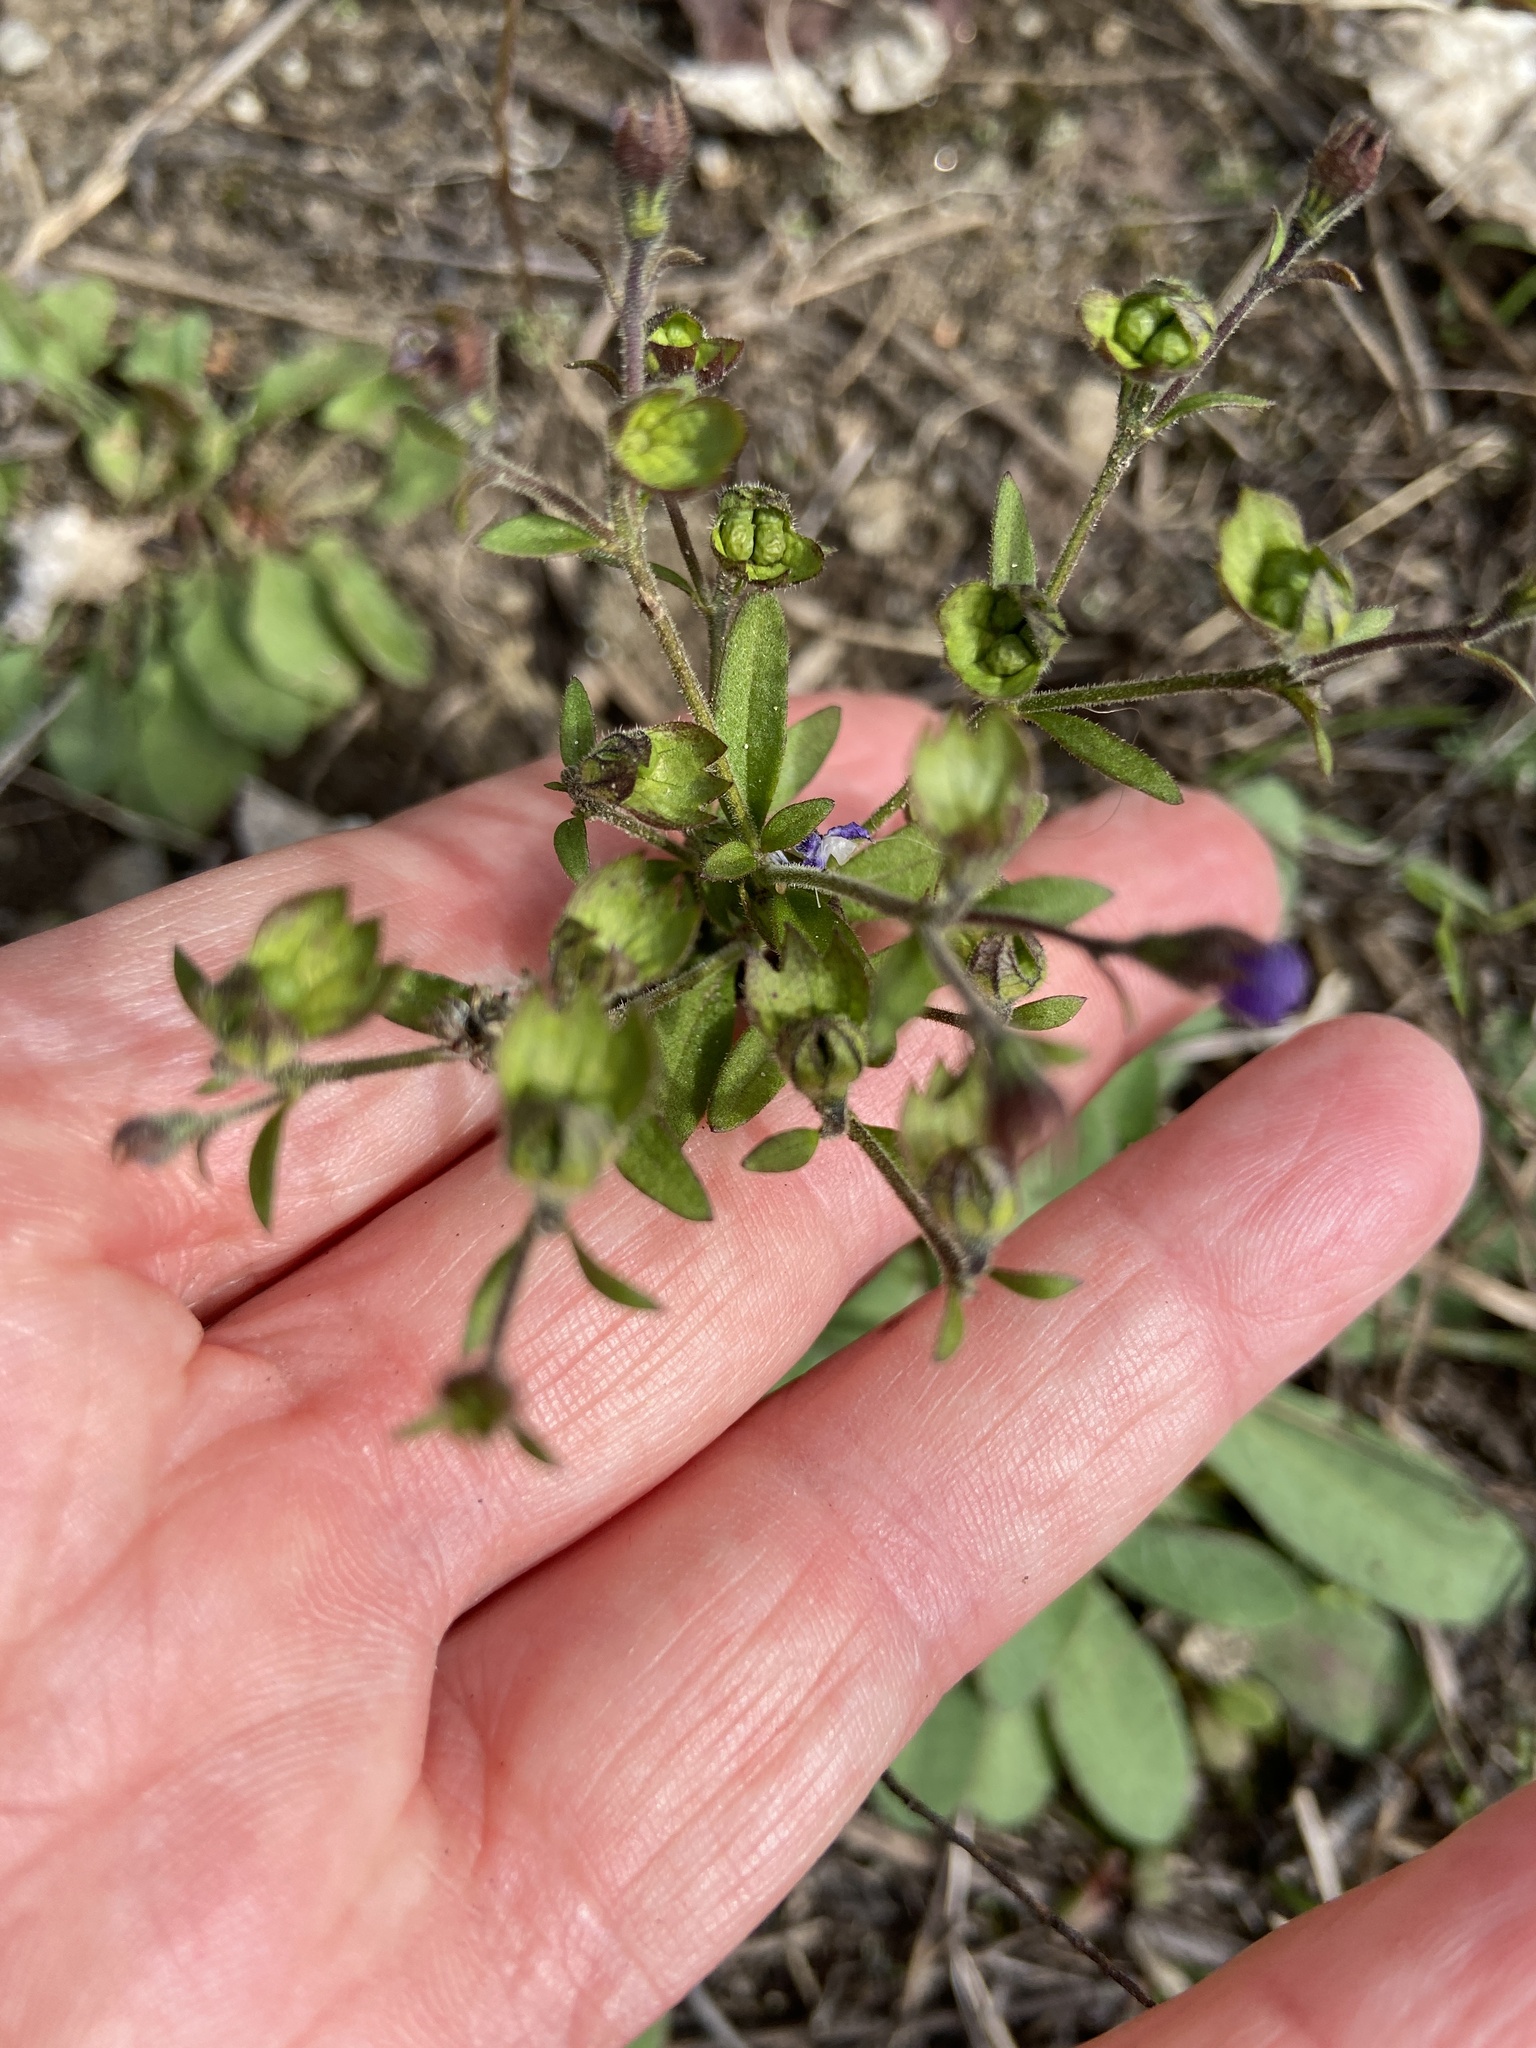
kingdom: Plantae
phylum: Tracheophyta
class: Magnoliopsida
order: Lamiales
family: Lamiaceae
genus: Trichostema
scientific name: Trichostema dichotomum
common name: Bastard pennyroyal
